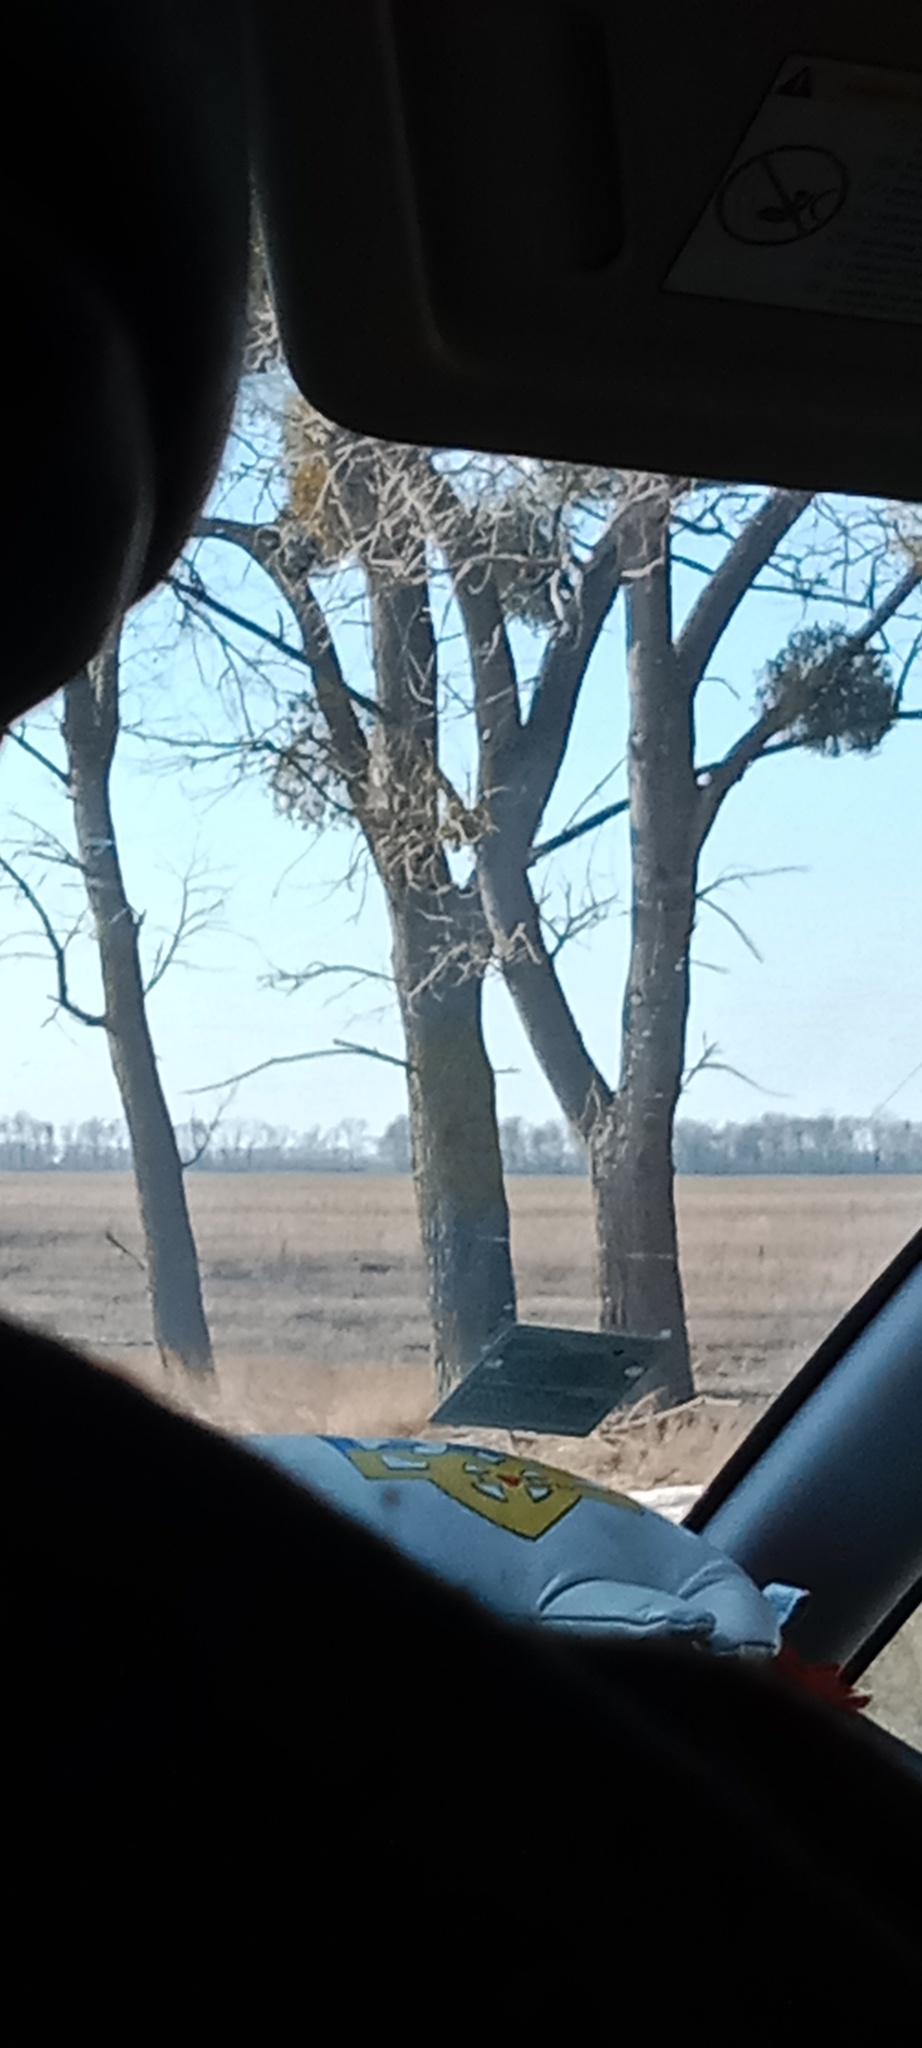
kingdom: Plantae
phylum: Tracheophyta
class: Magnoliopsida
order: Santalales
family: Viscaceae
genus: Viscum
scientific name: Viscum album
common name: Mistletoe
